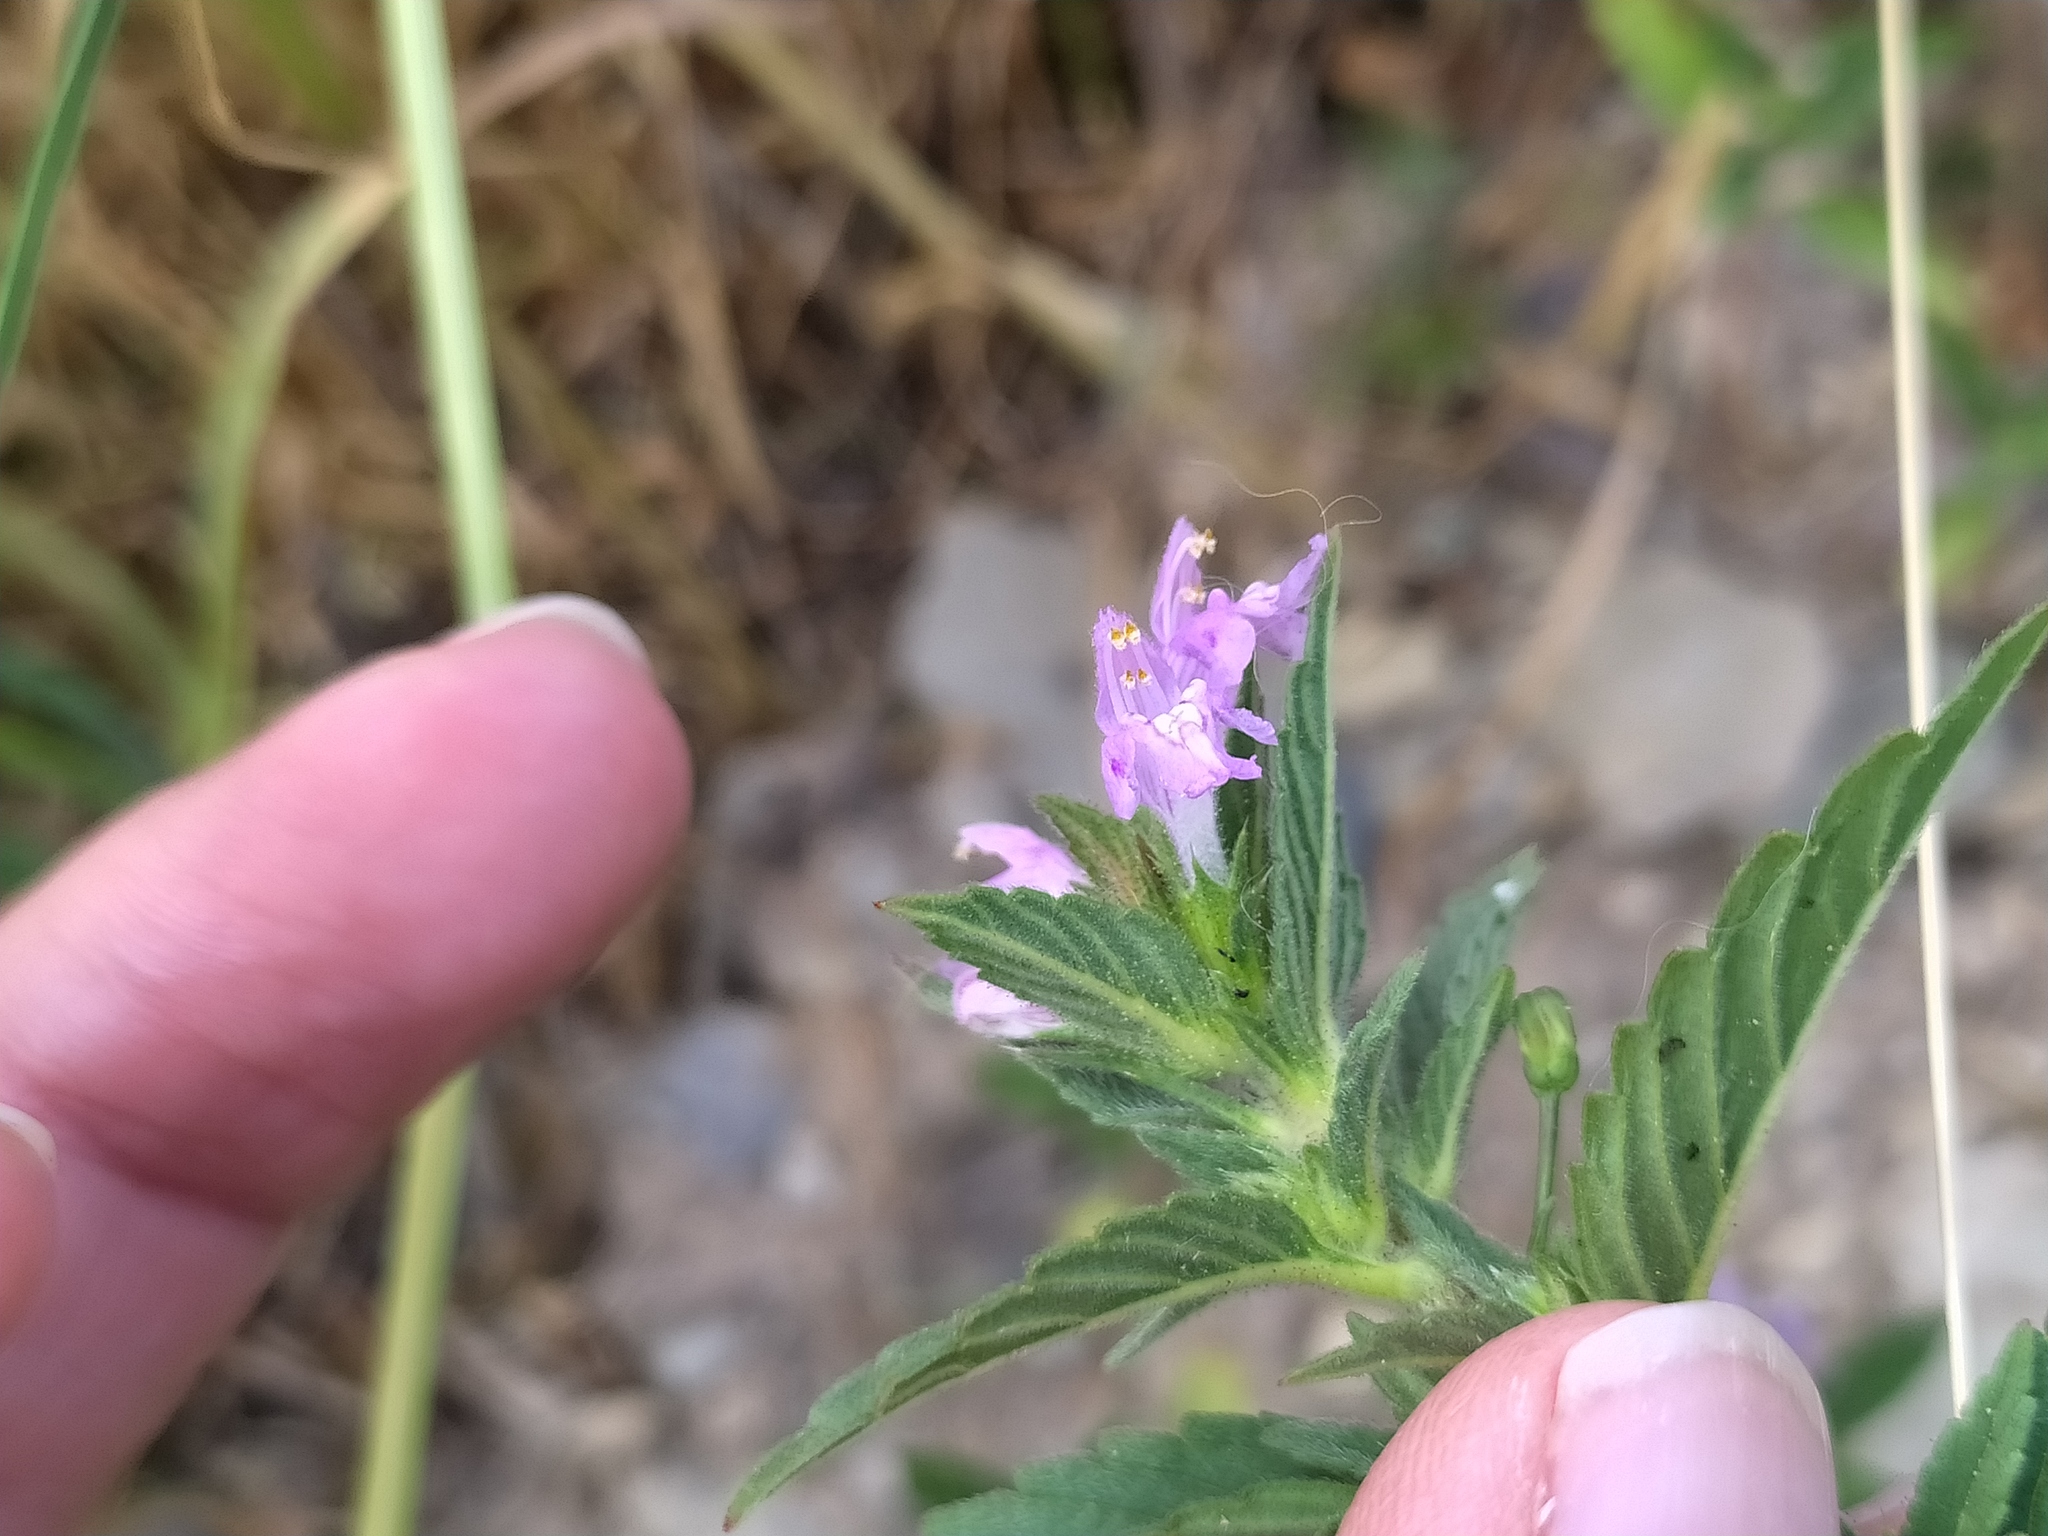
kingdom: Plantae
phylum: Tracheophyta
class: Magnoliopsida
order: Lamiales
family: Lamiaceae
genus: Galeopsis
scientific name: Galeopsis ladanum
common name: Broad-leaved hemp-nettle
